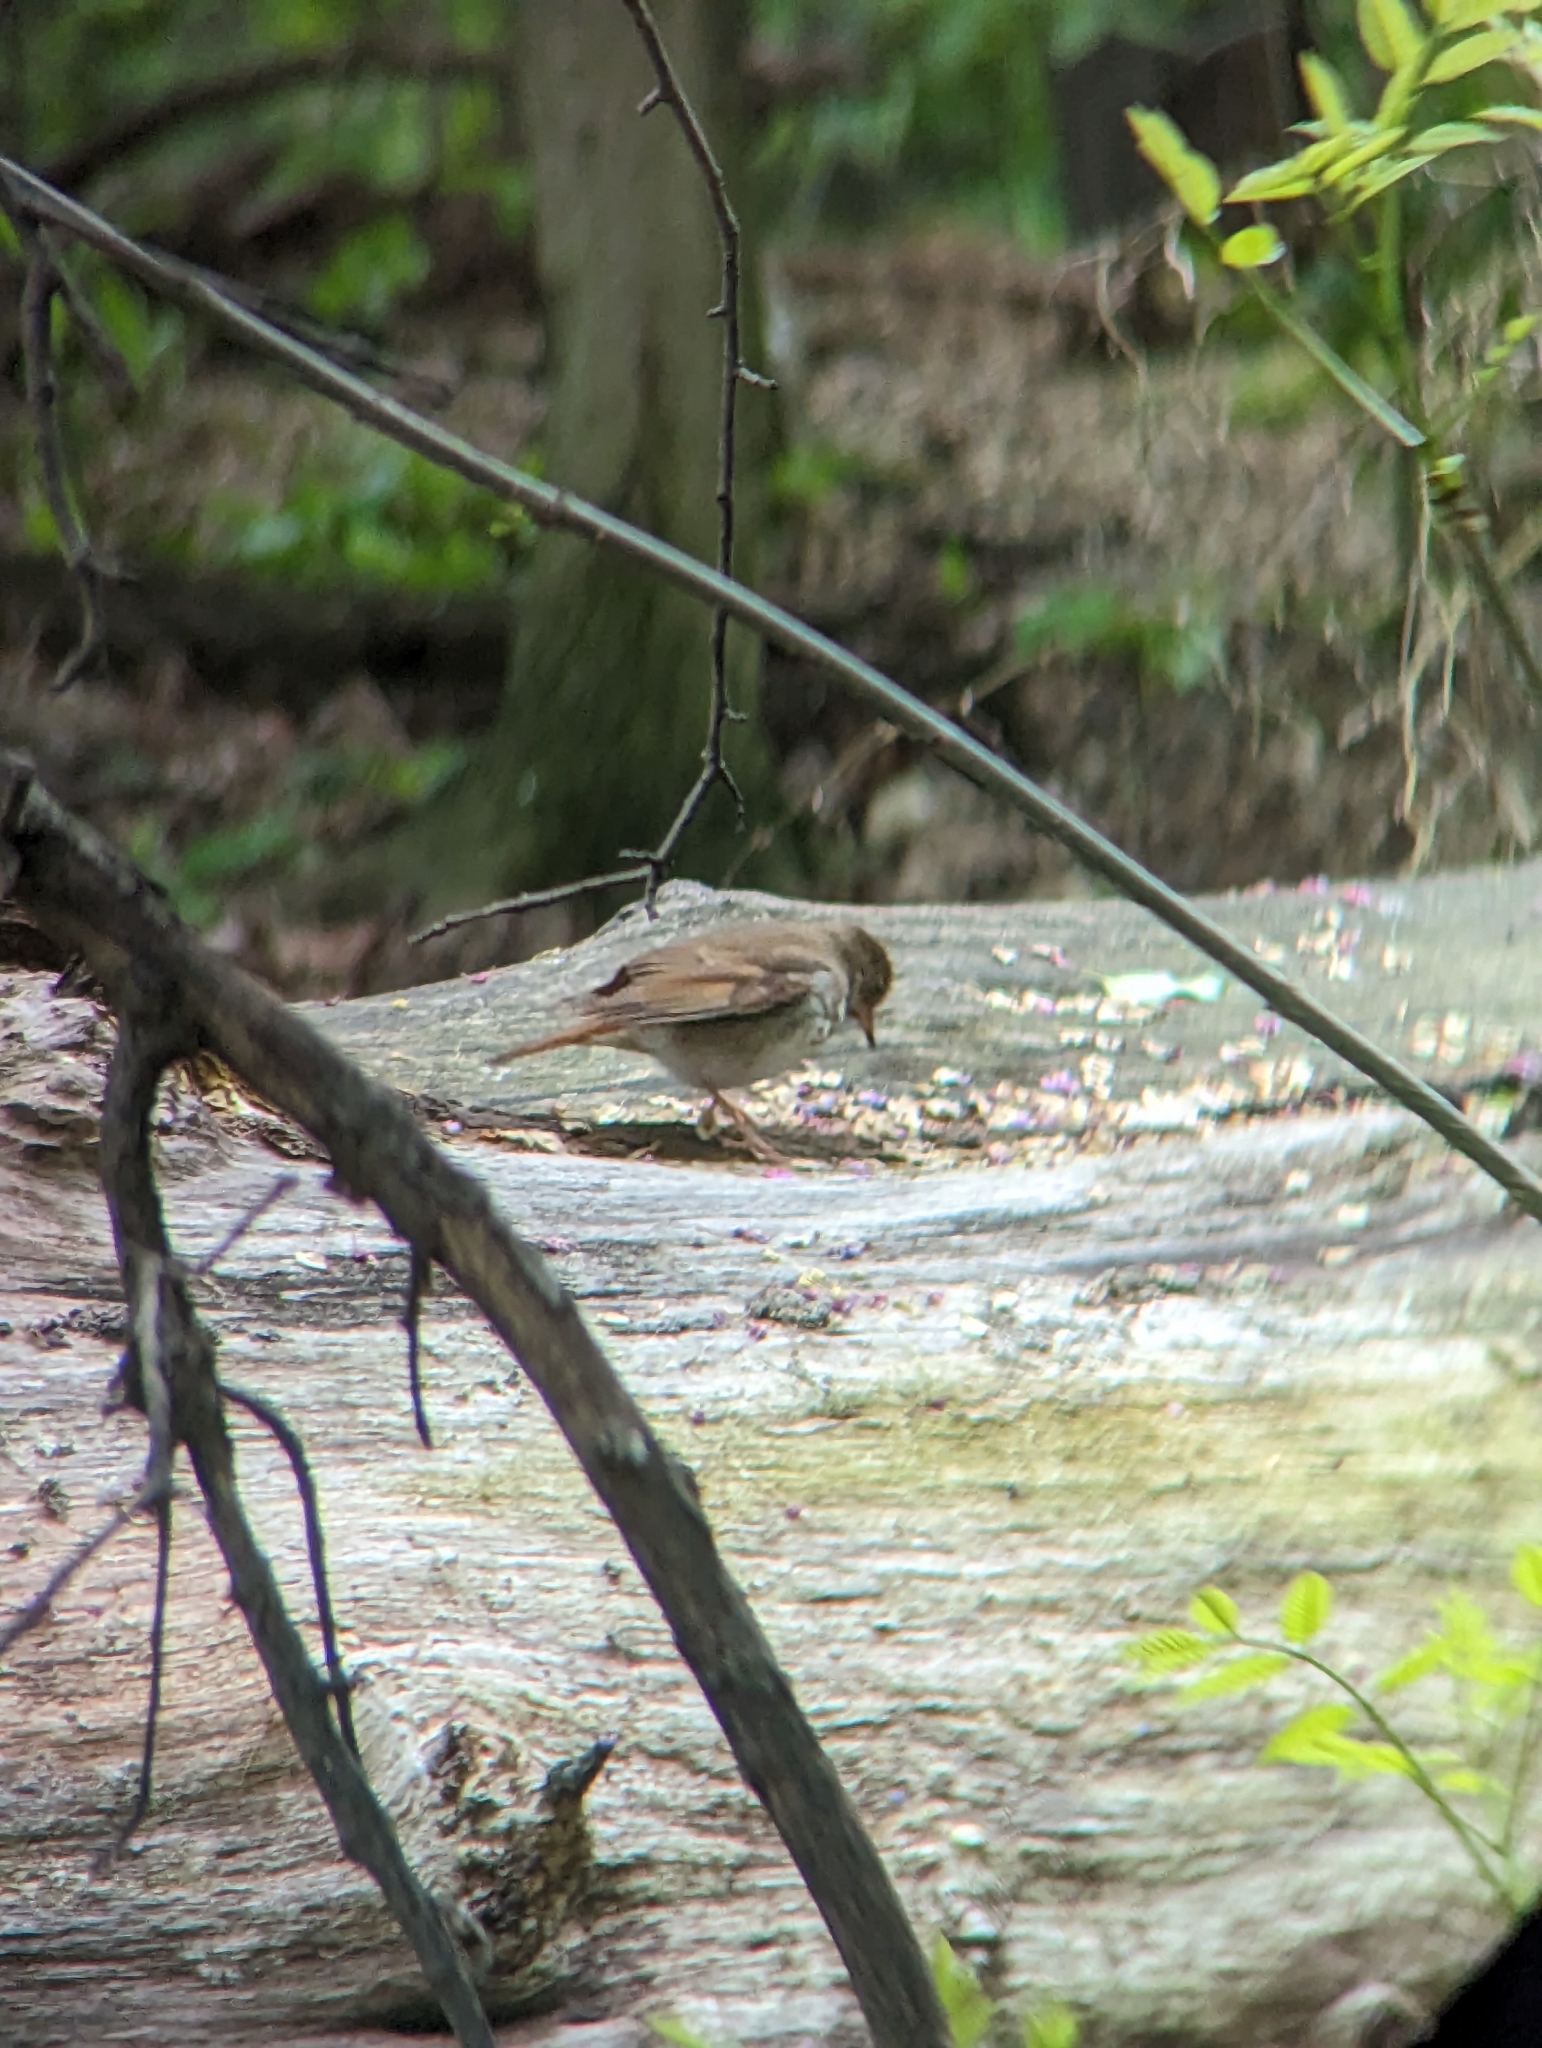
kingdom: Animalia
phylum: Chordata
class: Aves
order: Passeriformes
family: Turdidae
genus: Catharus
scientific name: Catharus guttatus
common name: Hermit thrush
